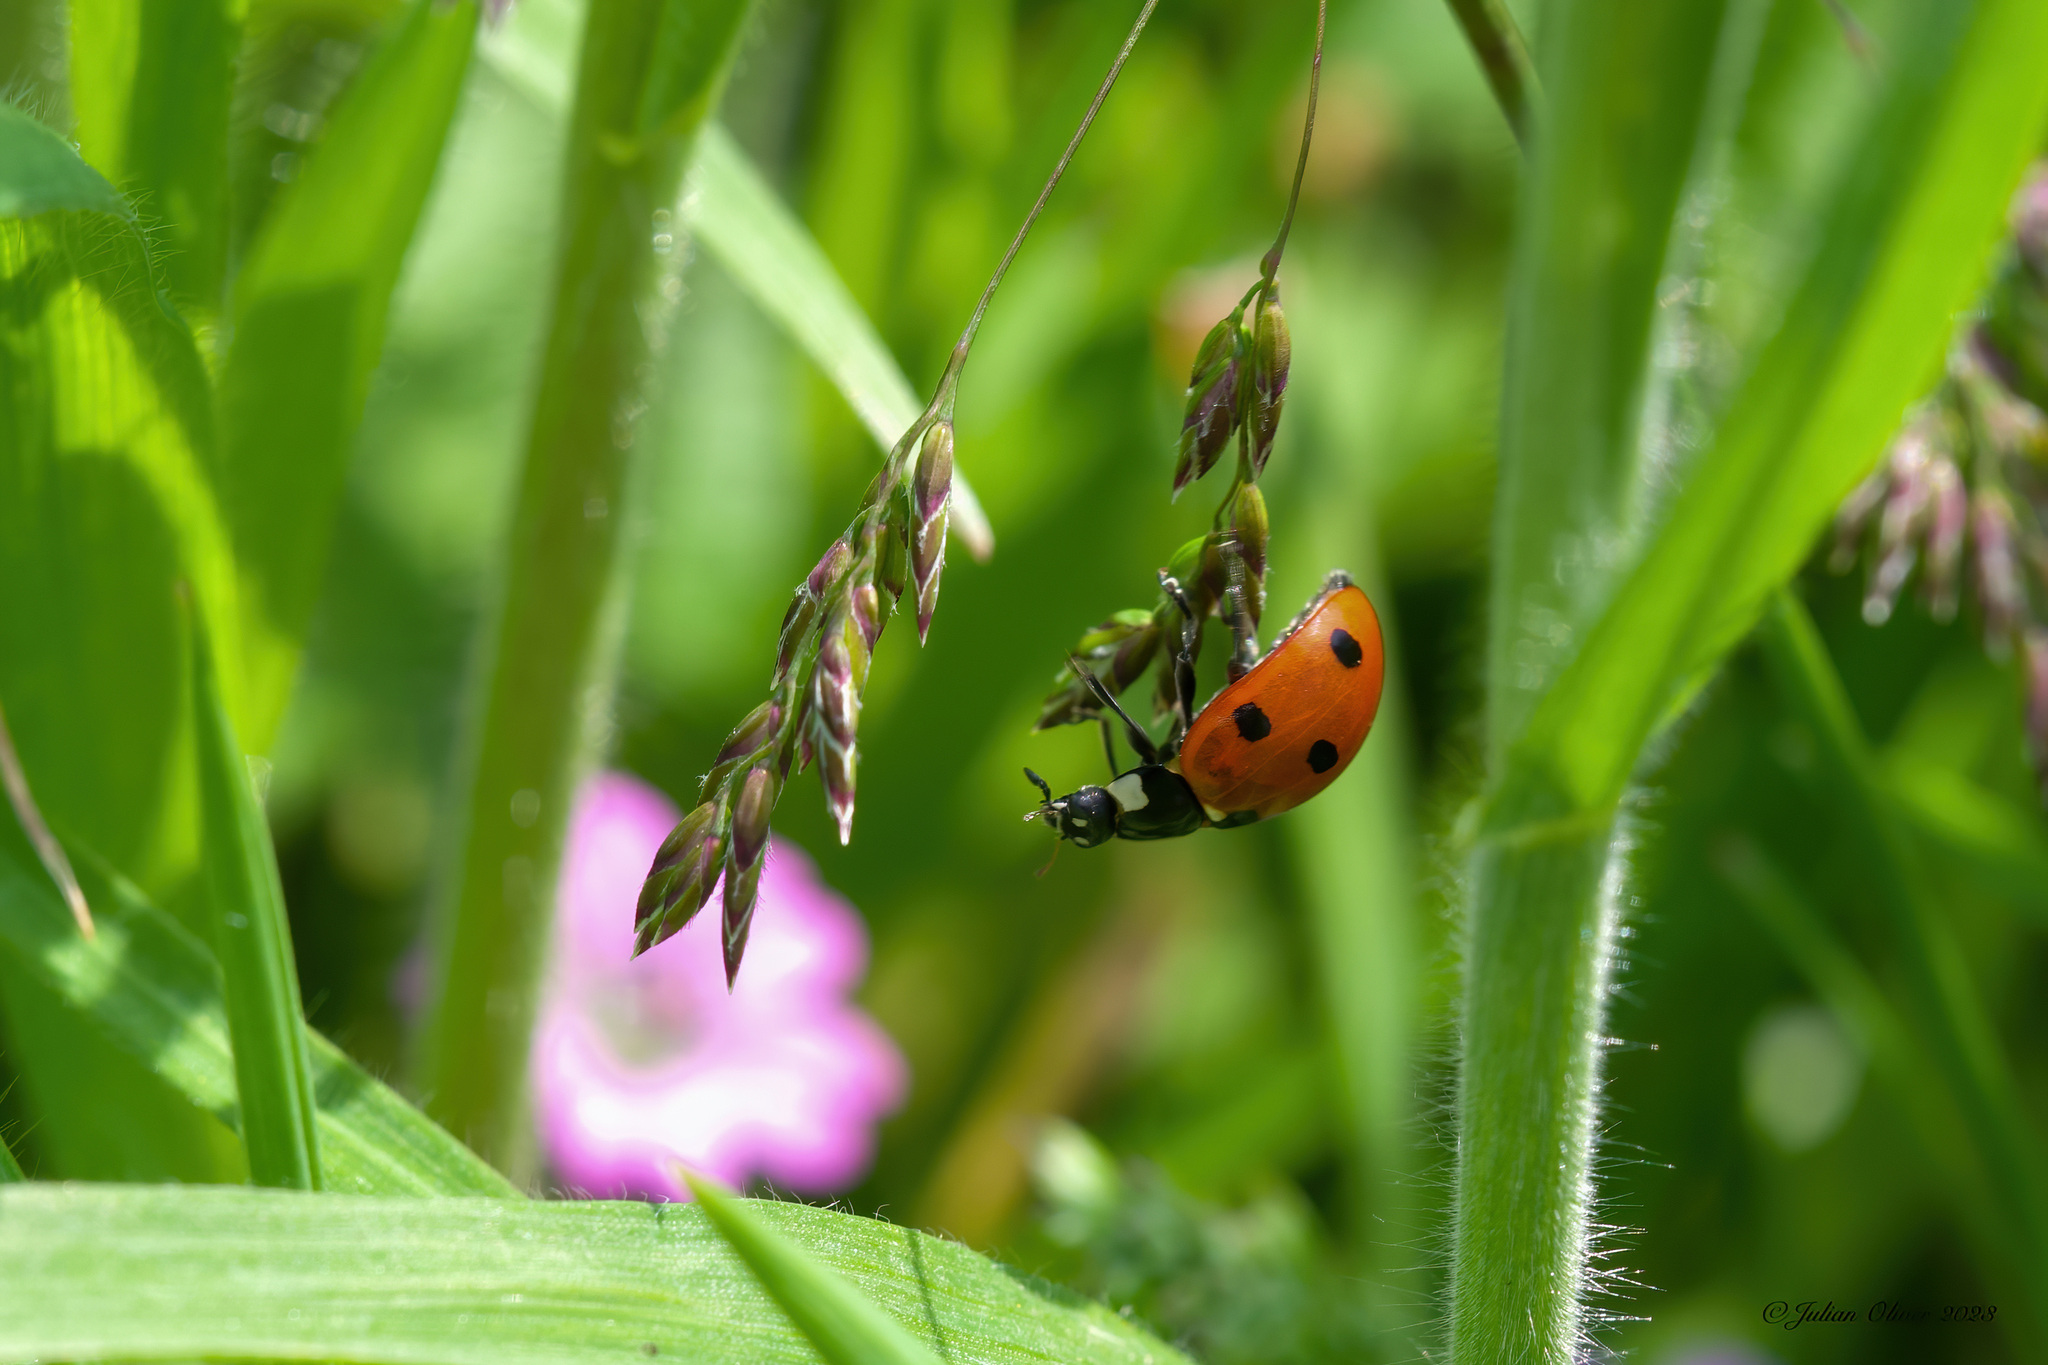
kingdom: Animalia
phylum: Arthropoda
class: Insecta
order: Coleoptera
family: Coccinellidae
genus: Coccinella
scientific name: Coccinella septempunctata
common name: Sevenspotted lady beetle
